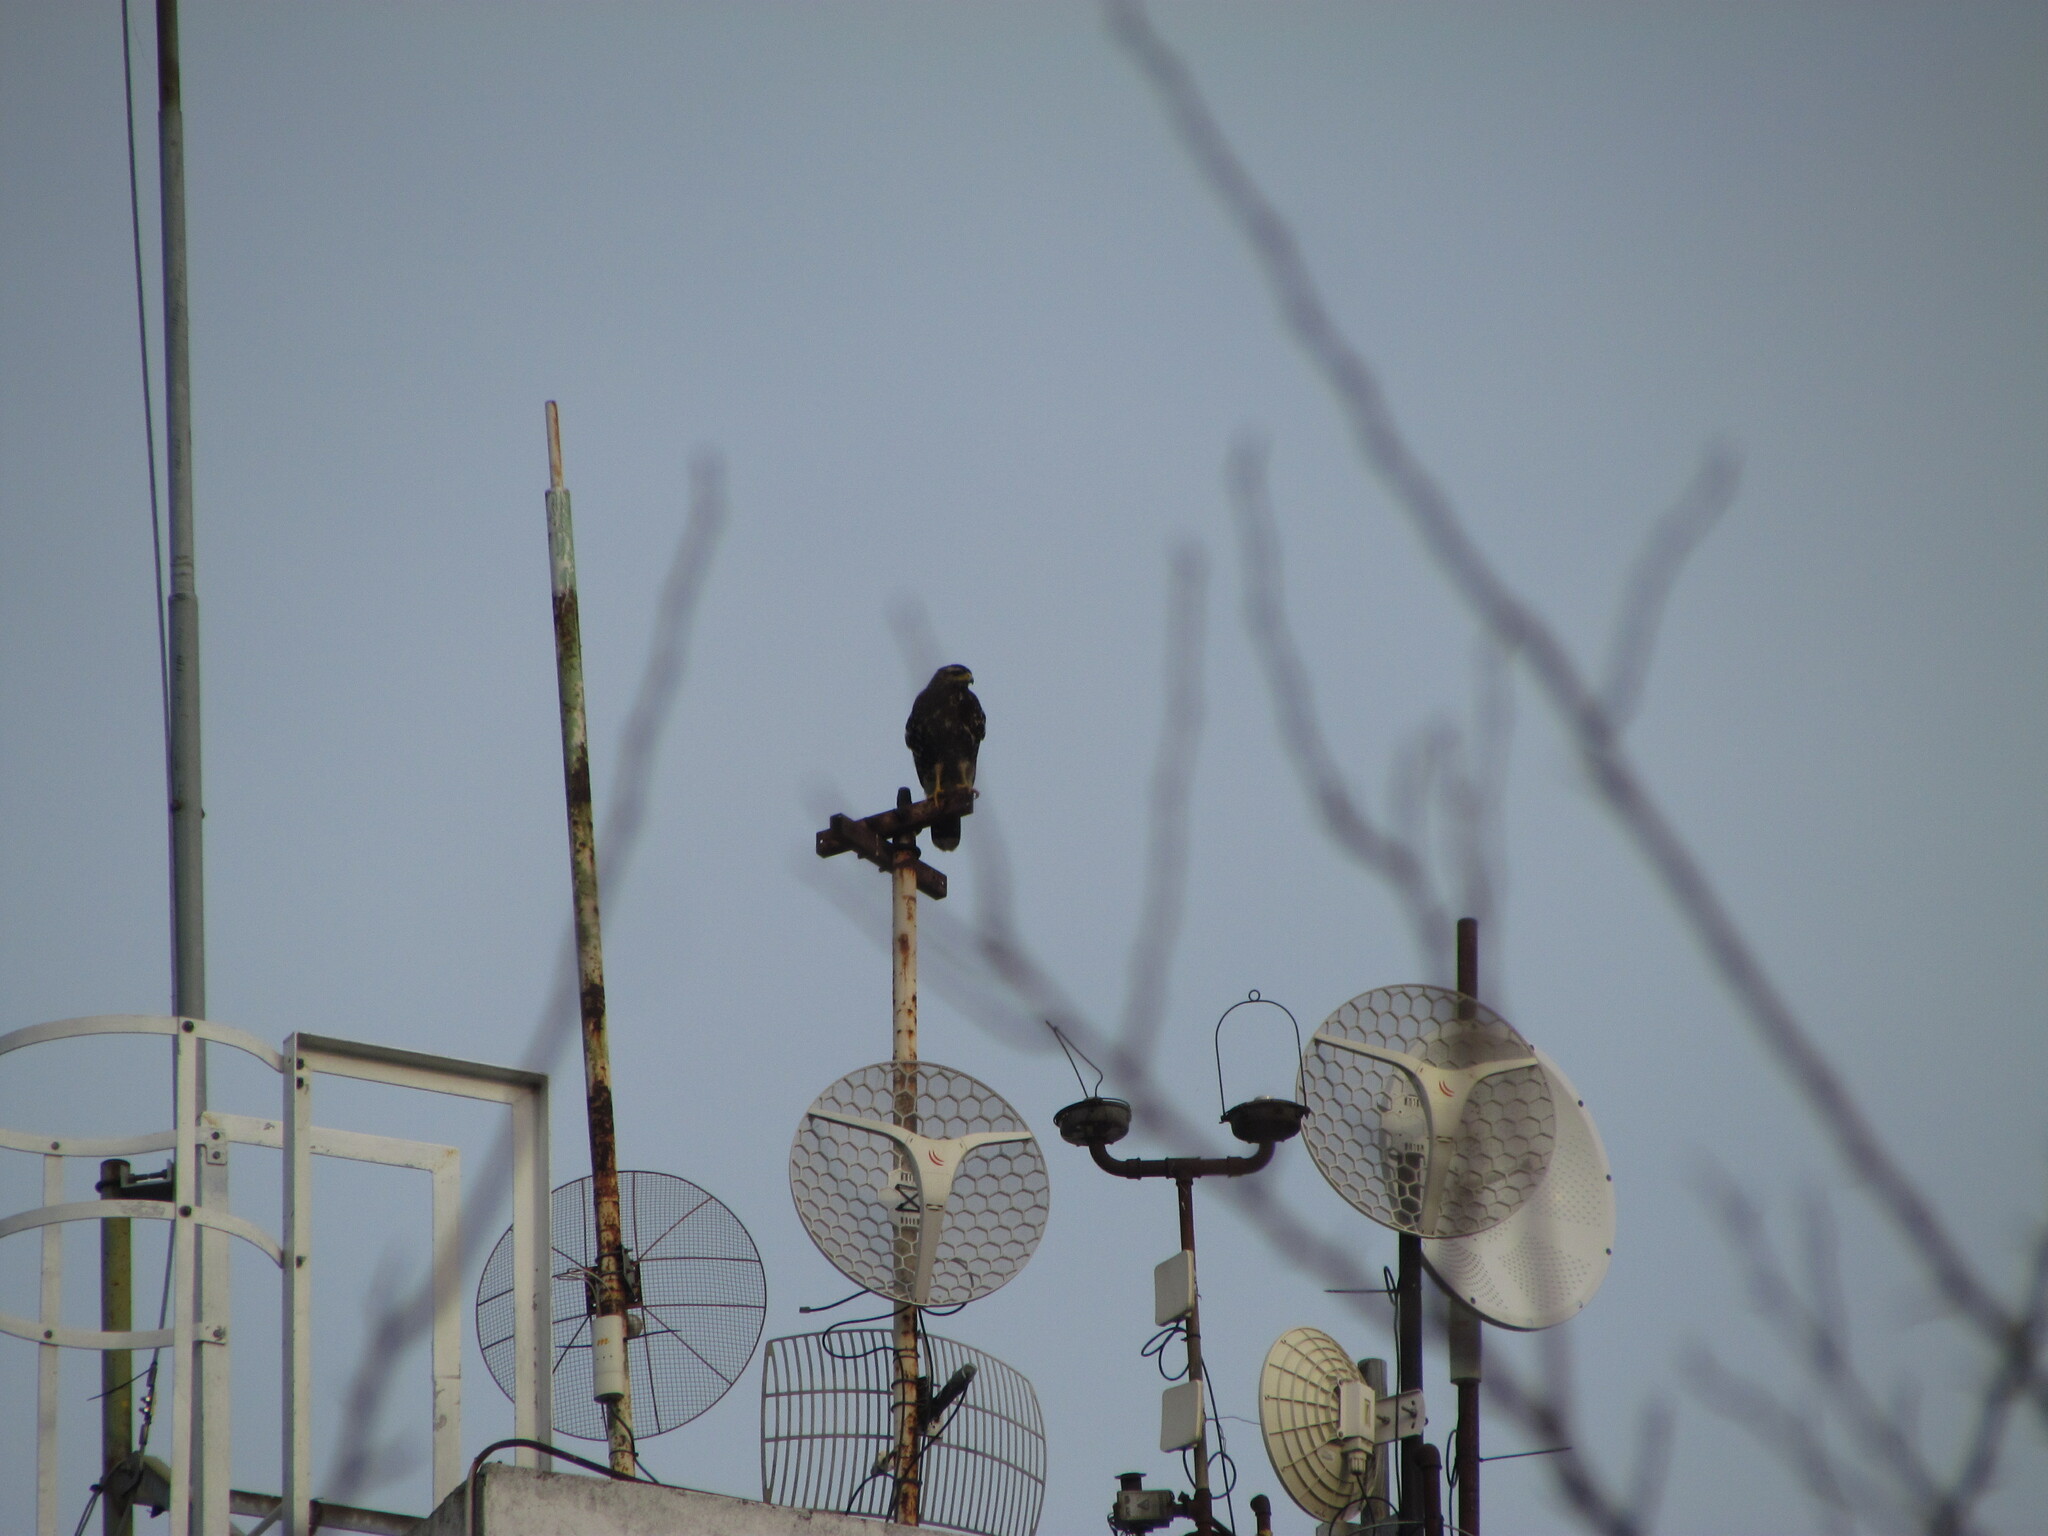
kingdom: Animalia
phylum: Chordata
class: Aves
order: Accipitriformes
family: Accipitridae
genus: Parabuteo
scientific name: Parabuteo unicinctus
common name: Harris's hawk
